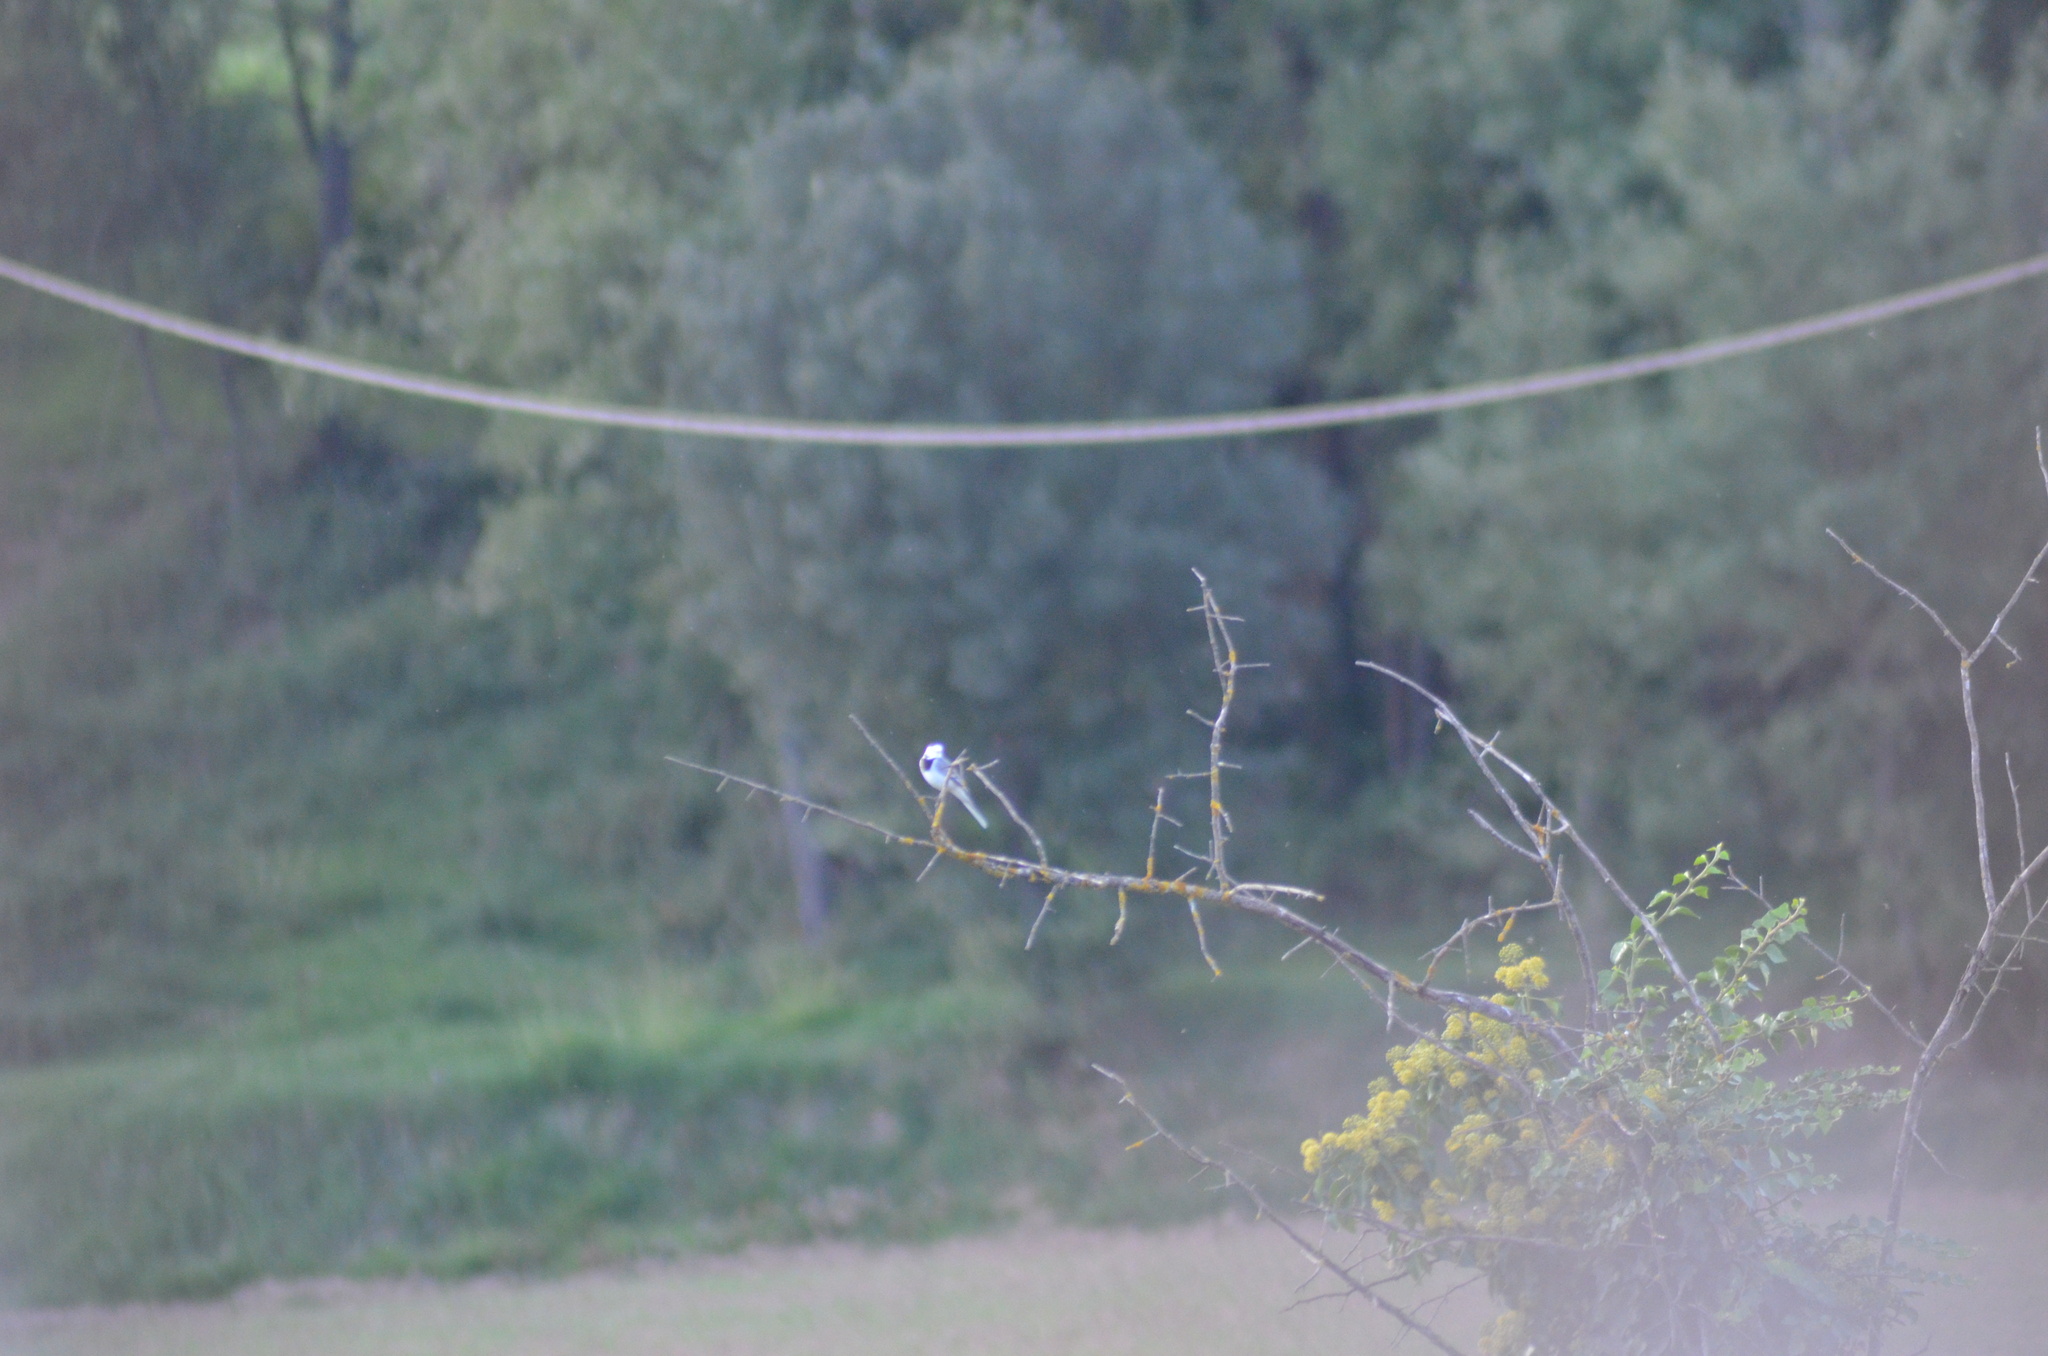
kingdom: Animalia
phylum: Chordata
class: Aves
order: Passeriformes
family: Motacillidae
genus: Motacilla
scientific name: Motacilla alba
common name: White wagtail
